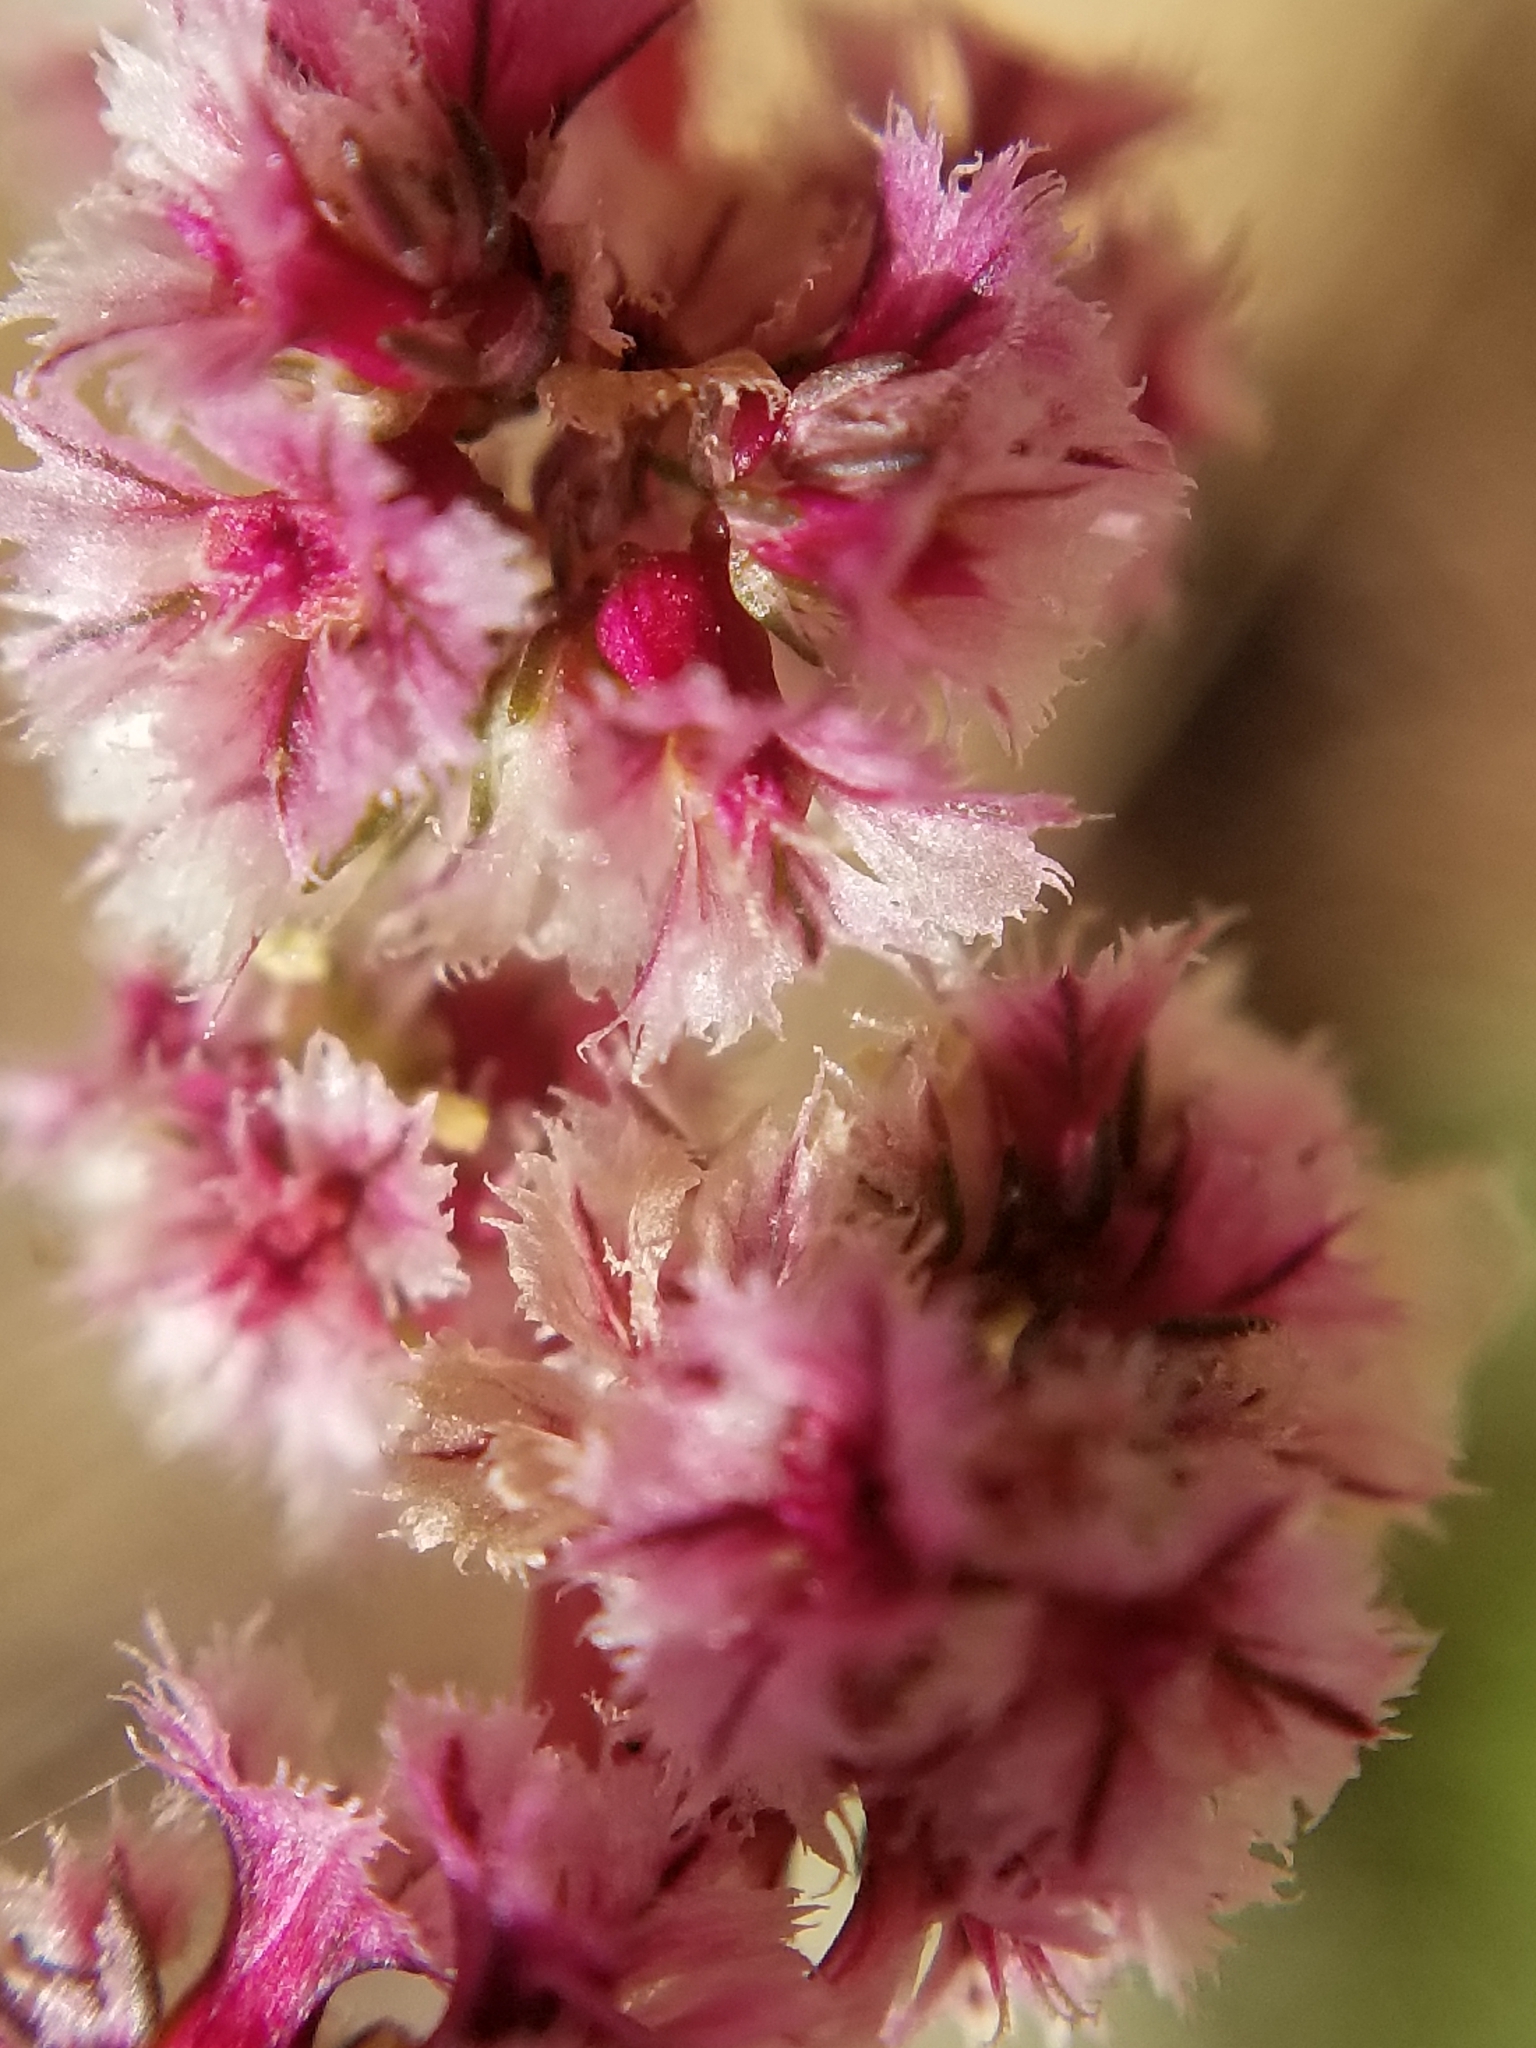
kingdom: Plantae
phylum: Tracheophyta
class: Magnoliopsida
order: Caryophyllales
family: Amaranthaceae
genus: Amaranthus
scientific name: Amaranthus fimbriatus
